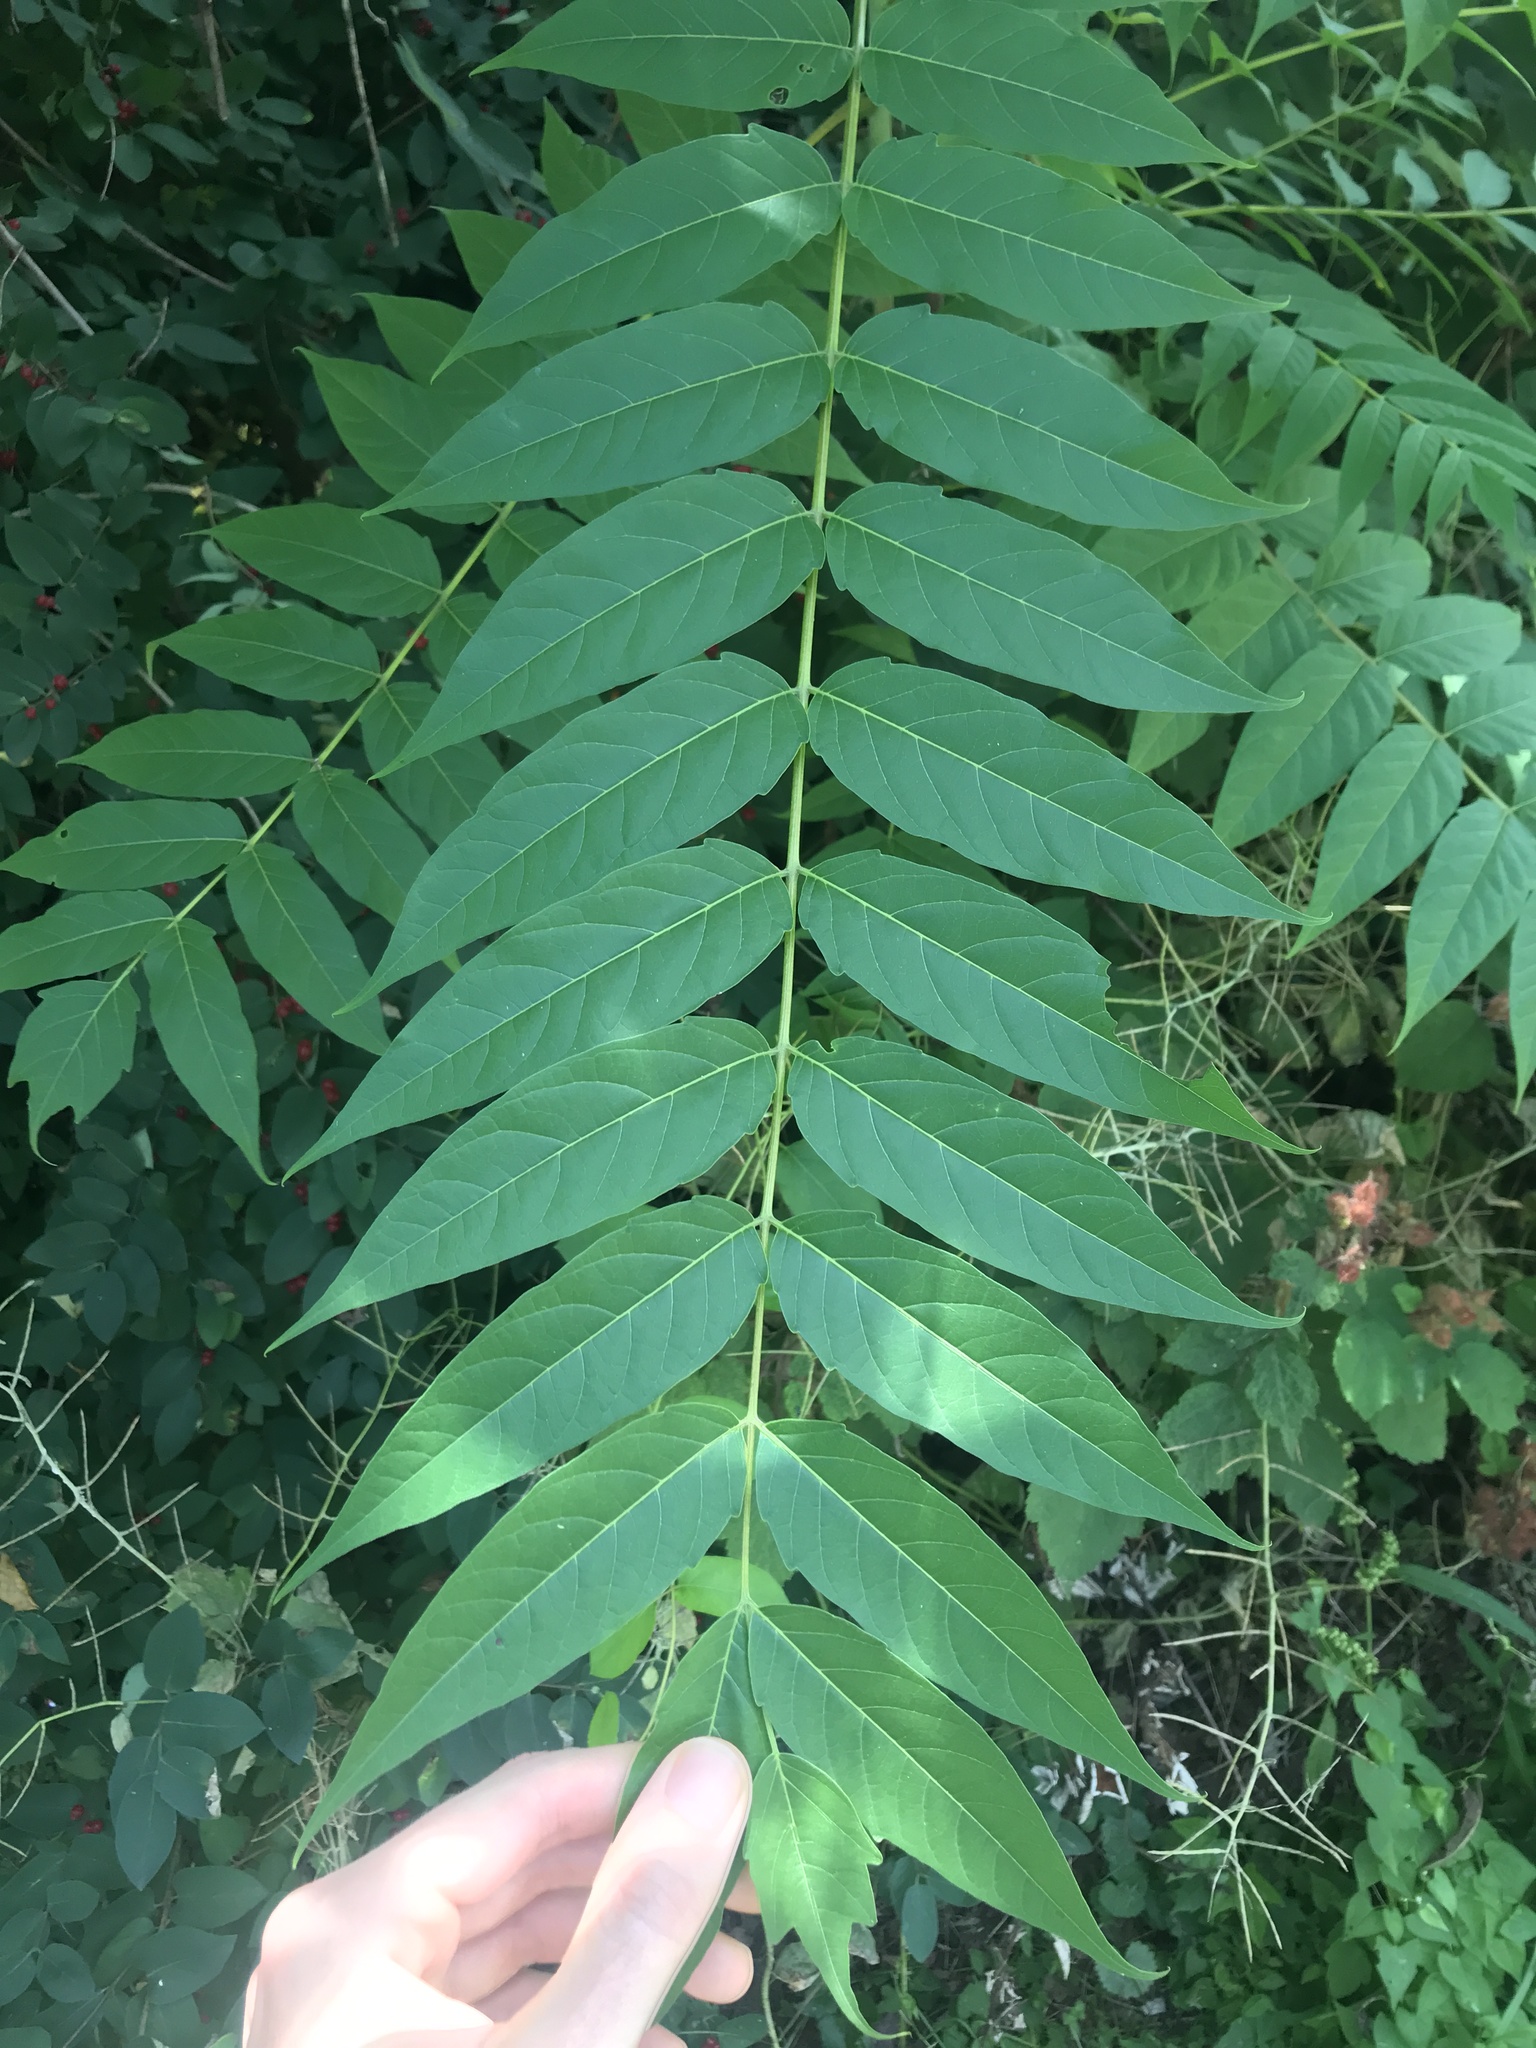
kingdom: Plantae
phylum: Tracheophyta
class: Magnoliopsida
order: Sapindales
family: Simaroubaceae
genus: Ailanthus
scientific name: Ailanthus altissima
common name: Tree-of-heaven
